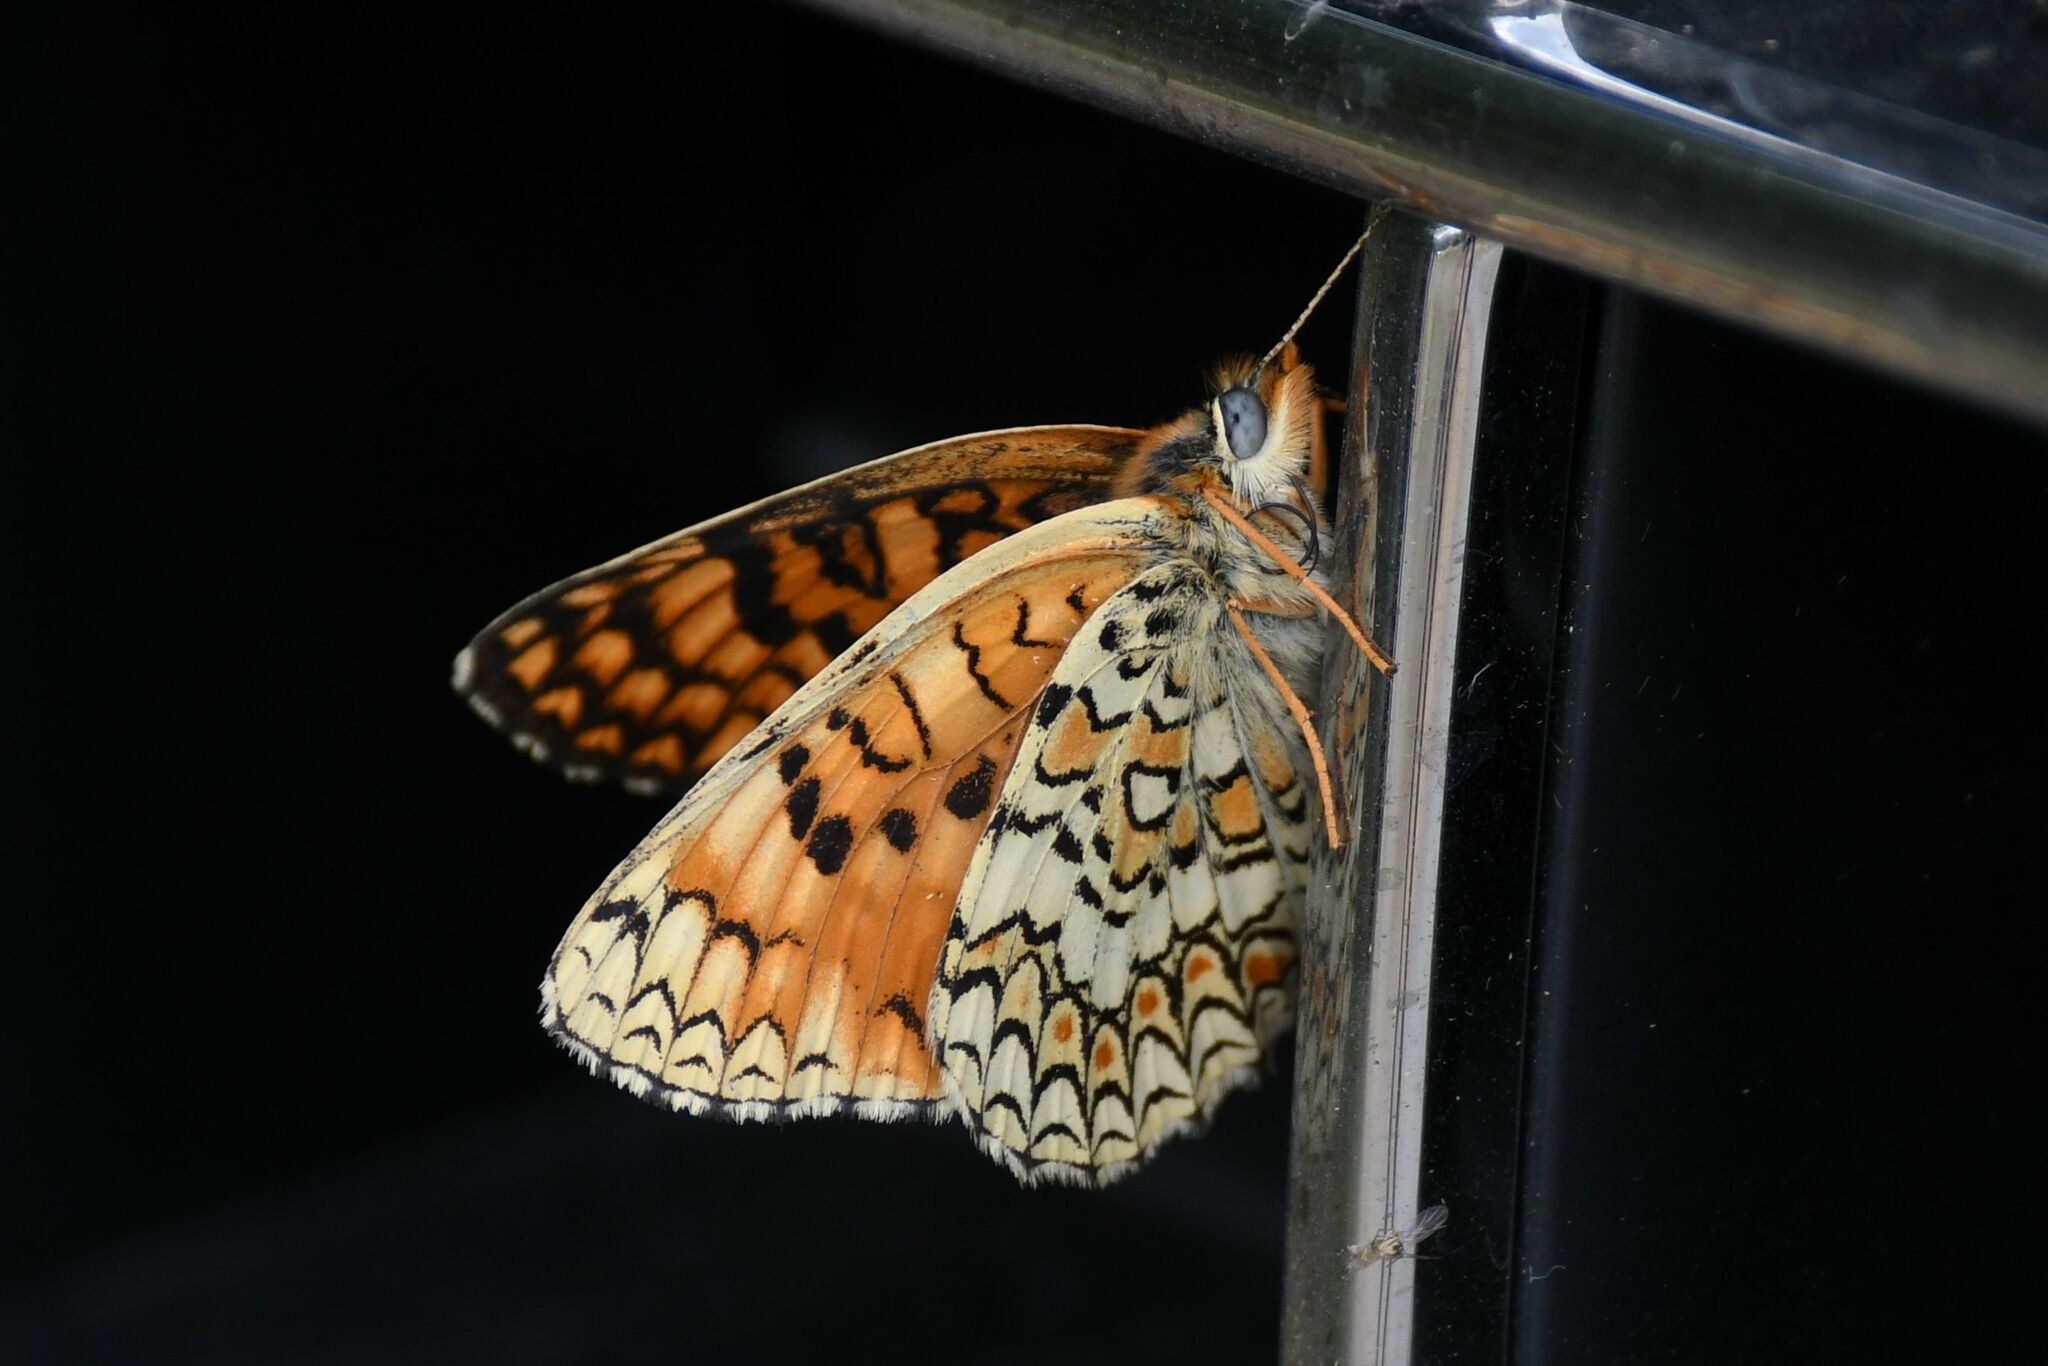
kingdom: Animalia
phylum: Arthropoda
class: Insecta
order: Lepidoptera
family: Nymphalidae
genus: Melitaea
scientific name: Melitaea phoebe
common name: Knapweed fritillary
